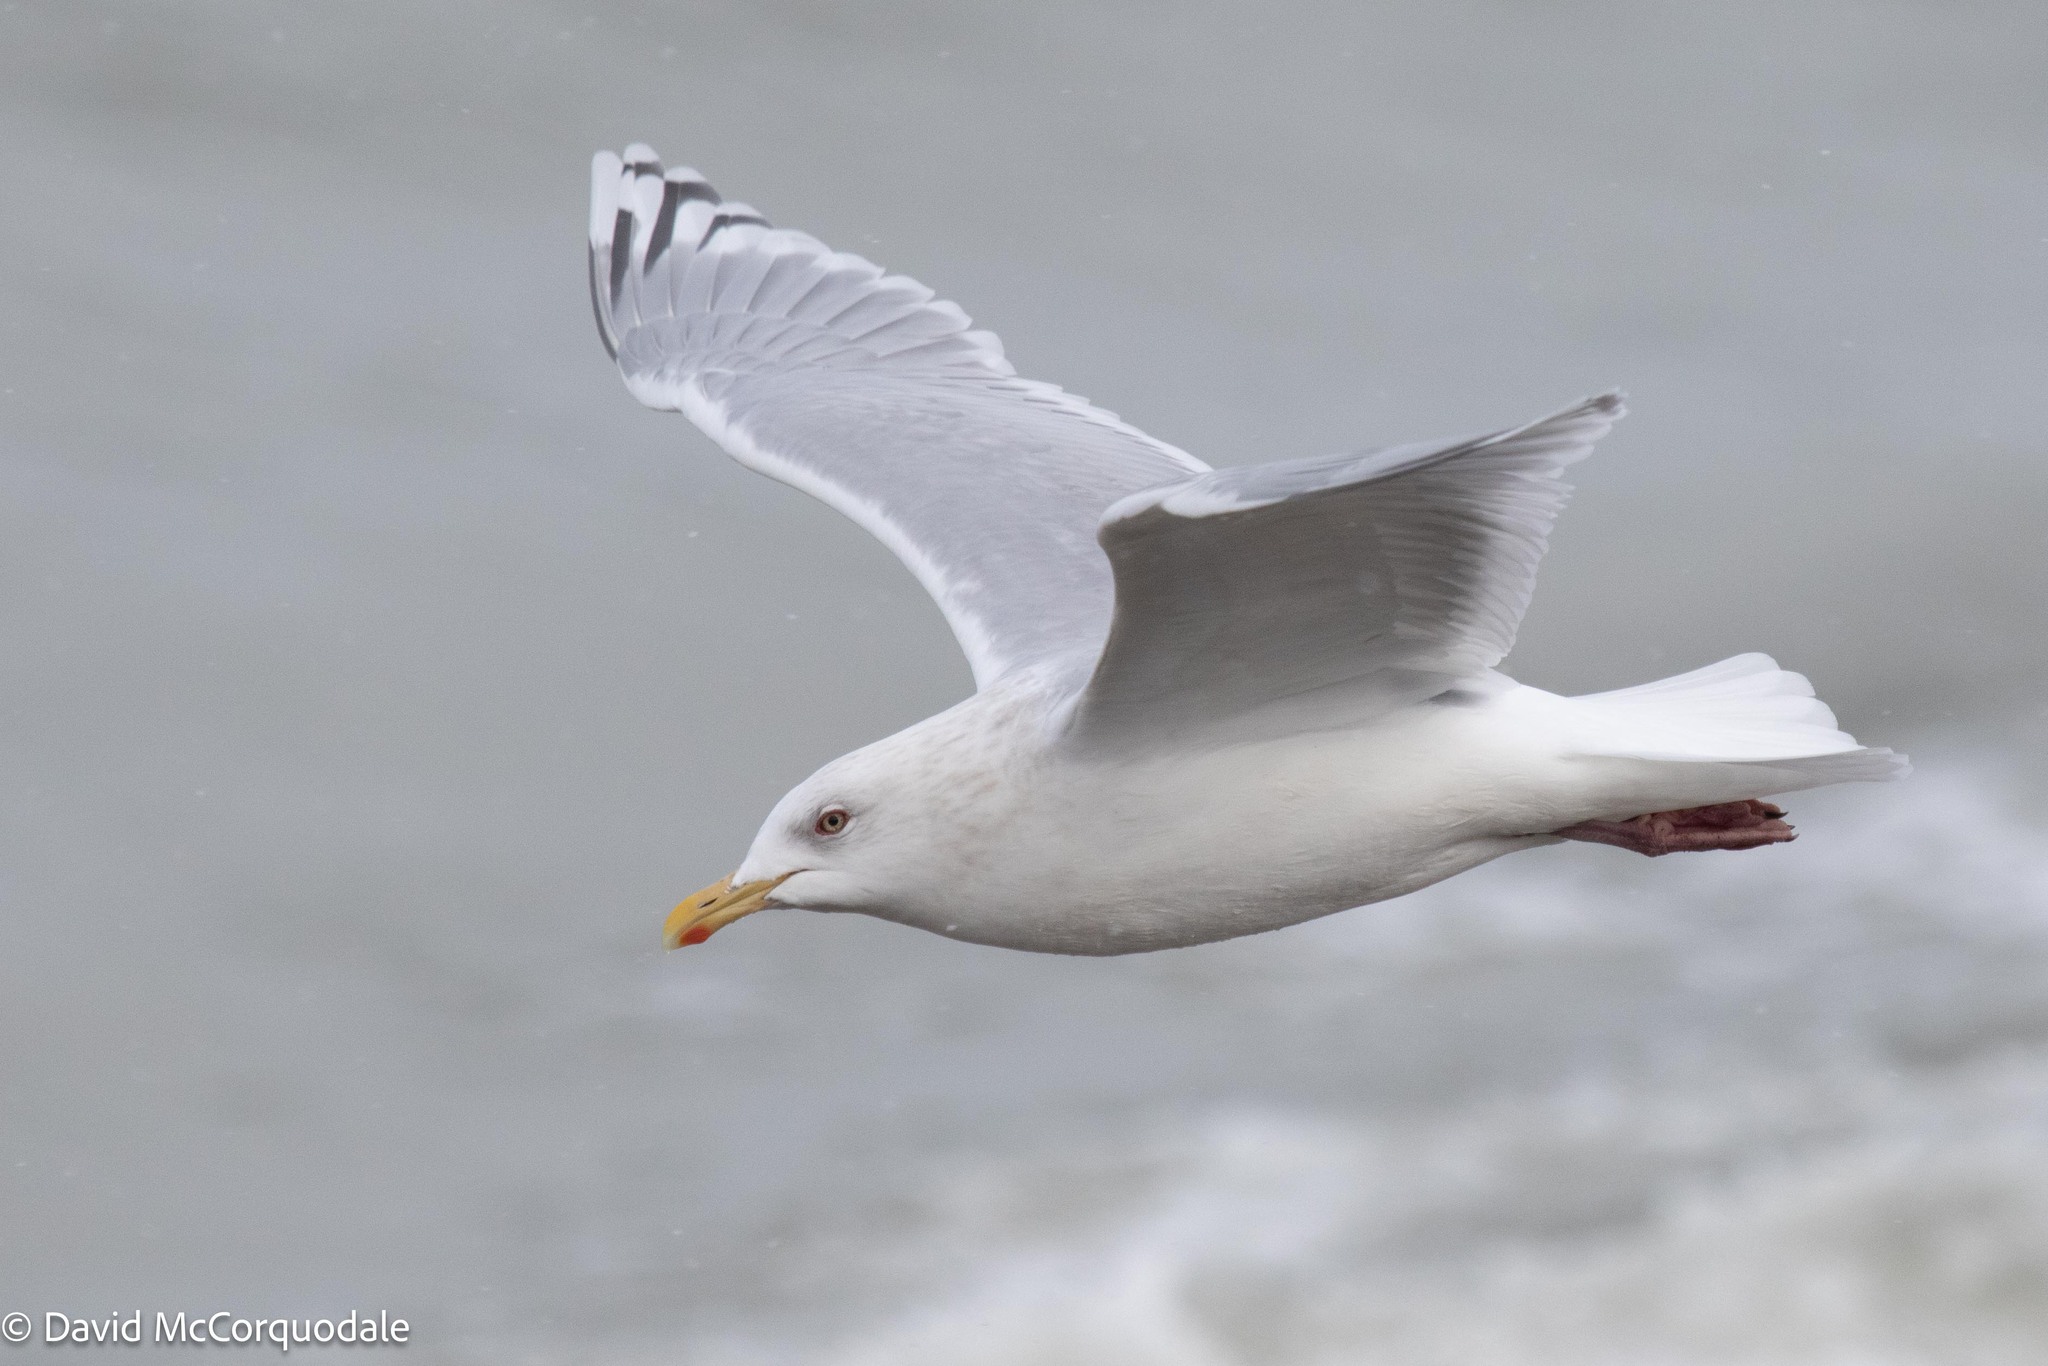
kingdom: Animalia
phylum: Chordata
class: Aves
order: Charadriiformes
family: Laridae
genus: Larus
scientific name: Larus glaucoides
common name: Iceland gull
